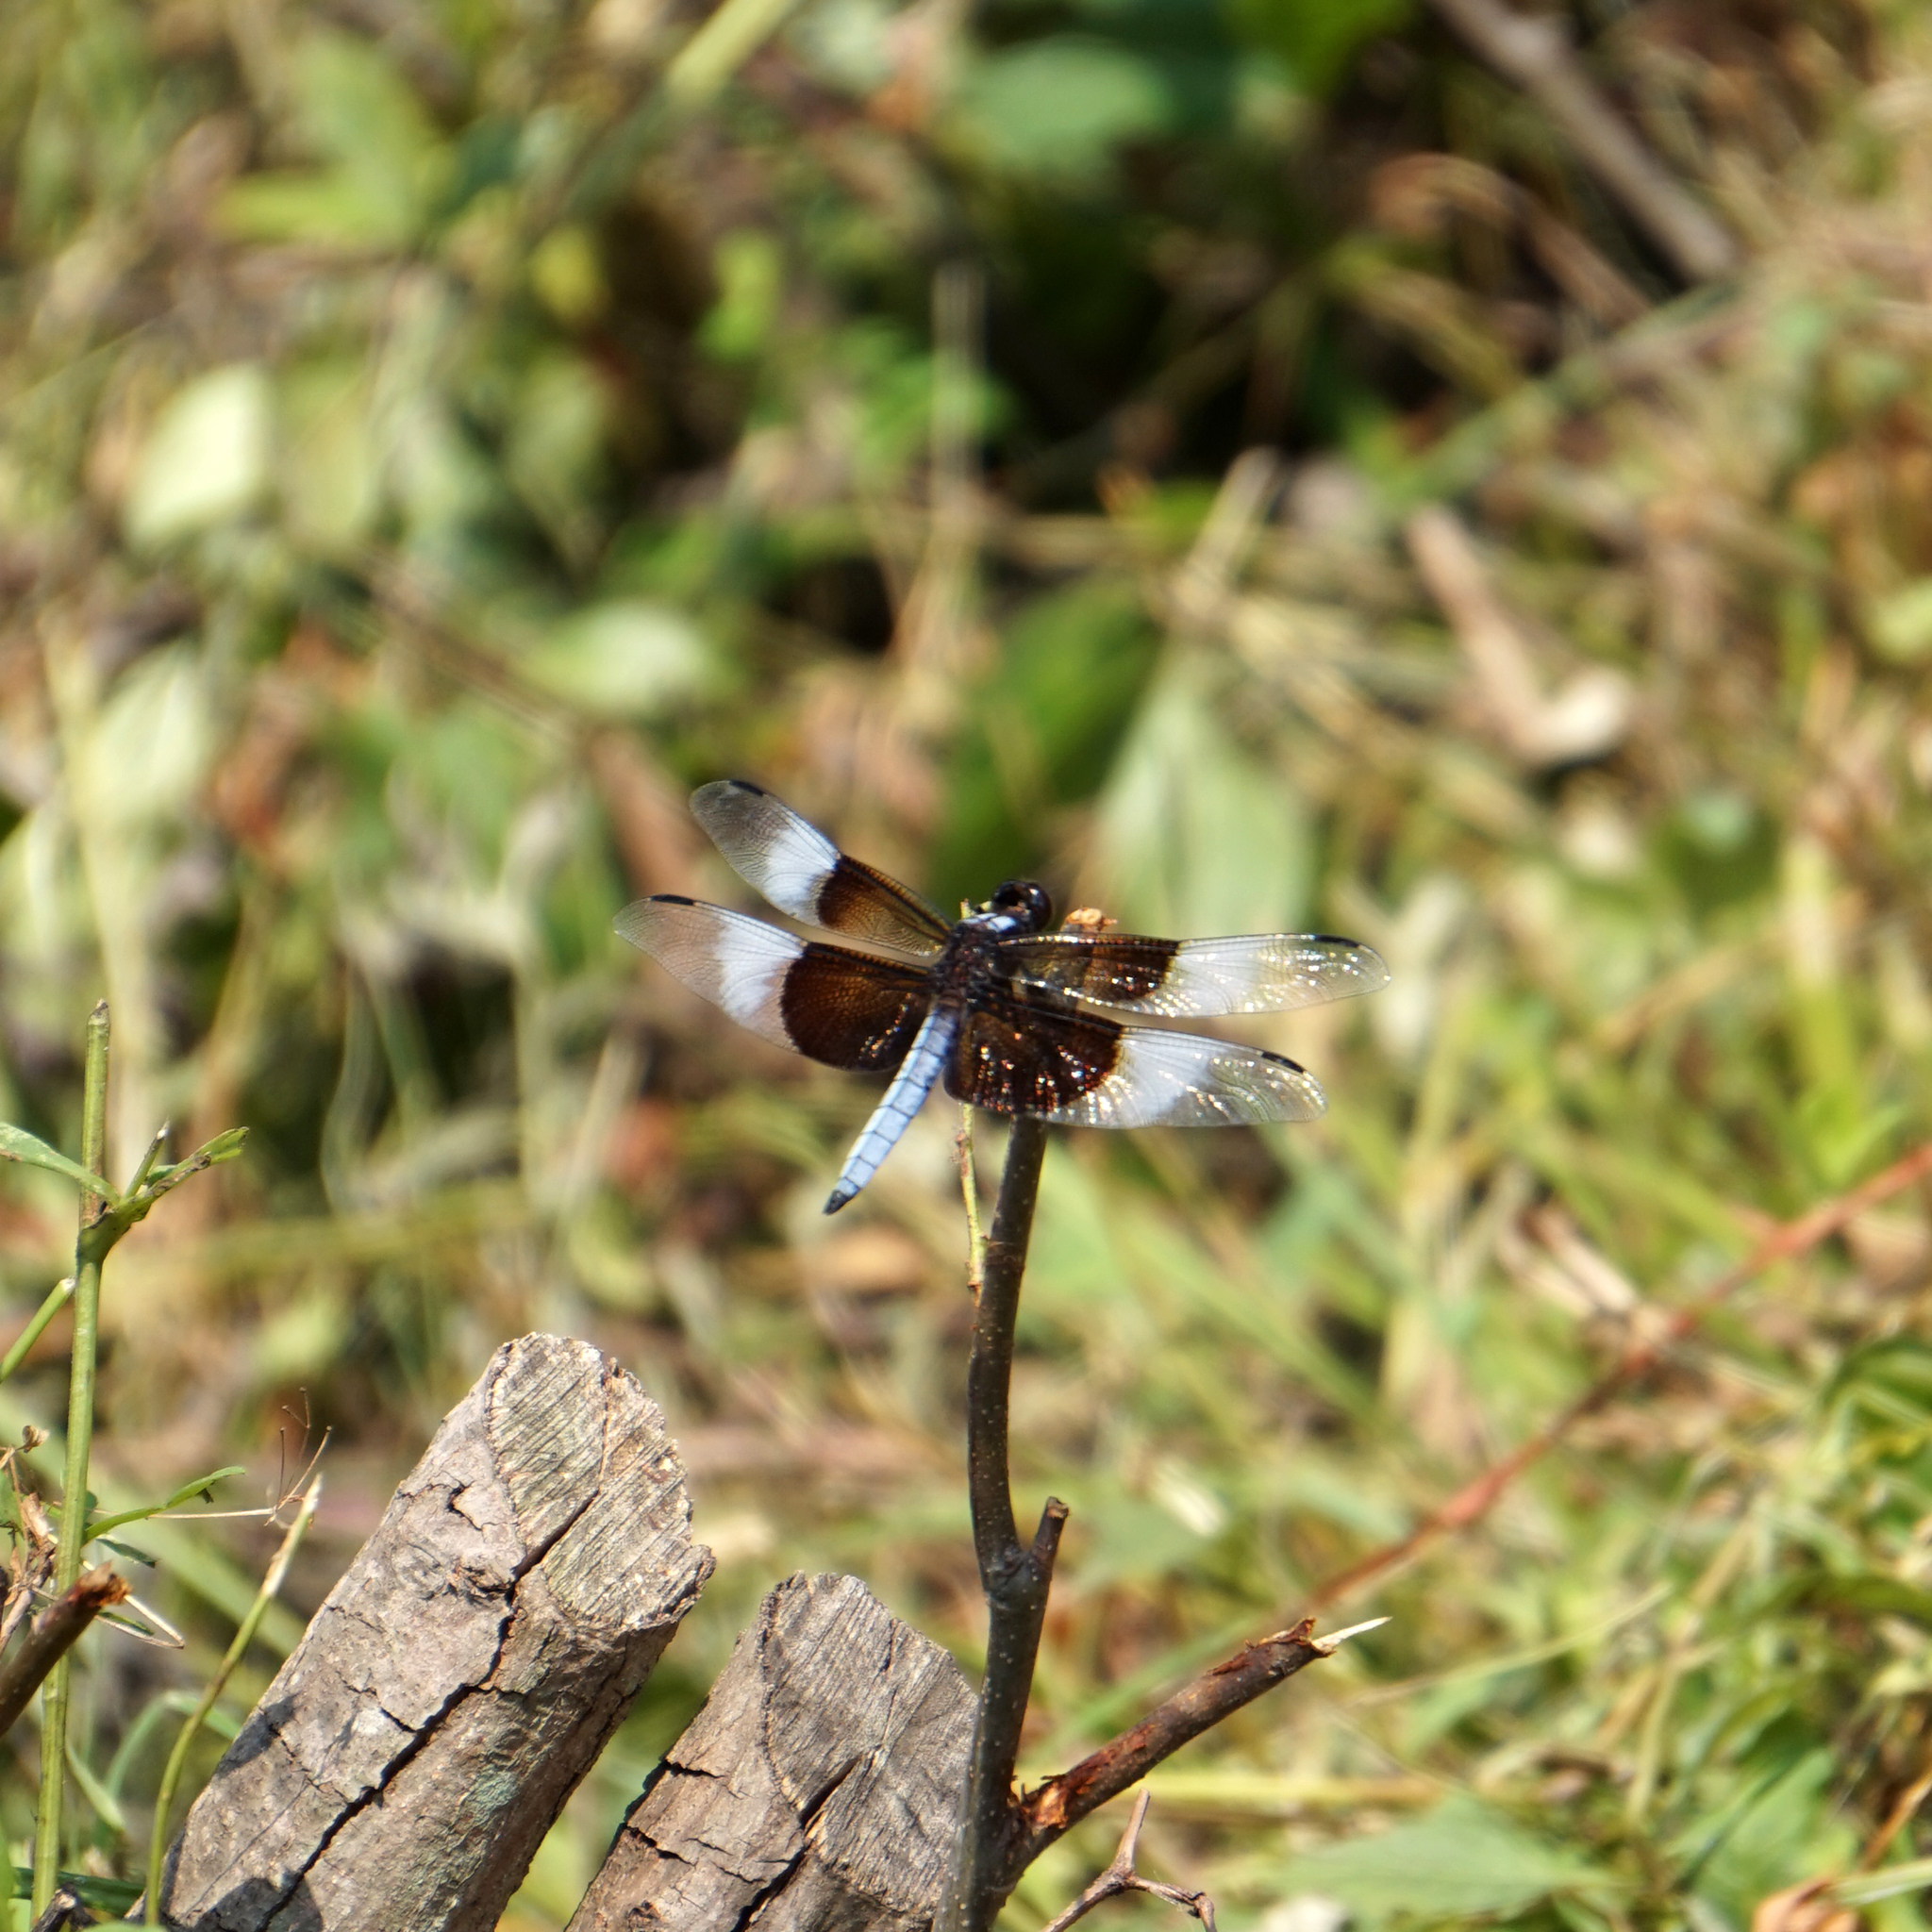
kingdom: Animalia
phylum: Arthropoda
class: Insecta
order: Odonata
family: Libellulidae
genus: Libellula
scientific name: Libellula luctuosa
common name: Widow skimmer
